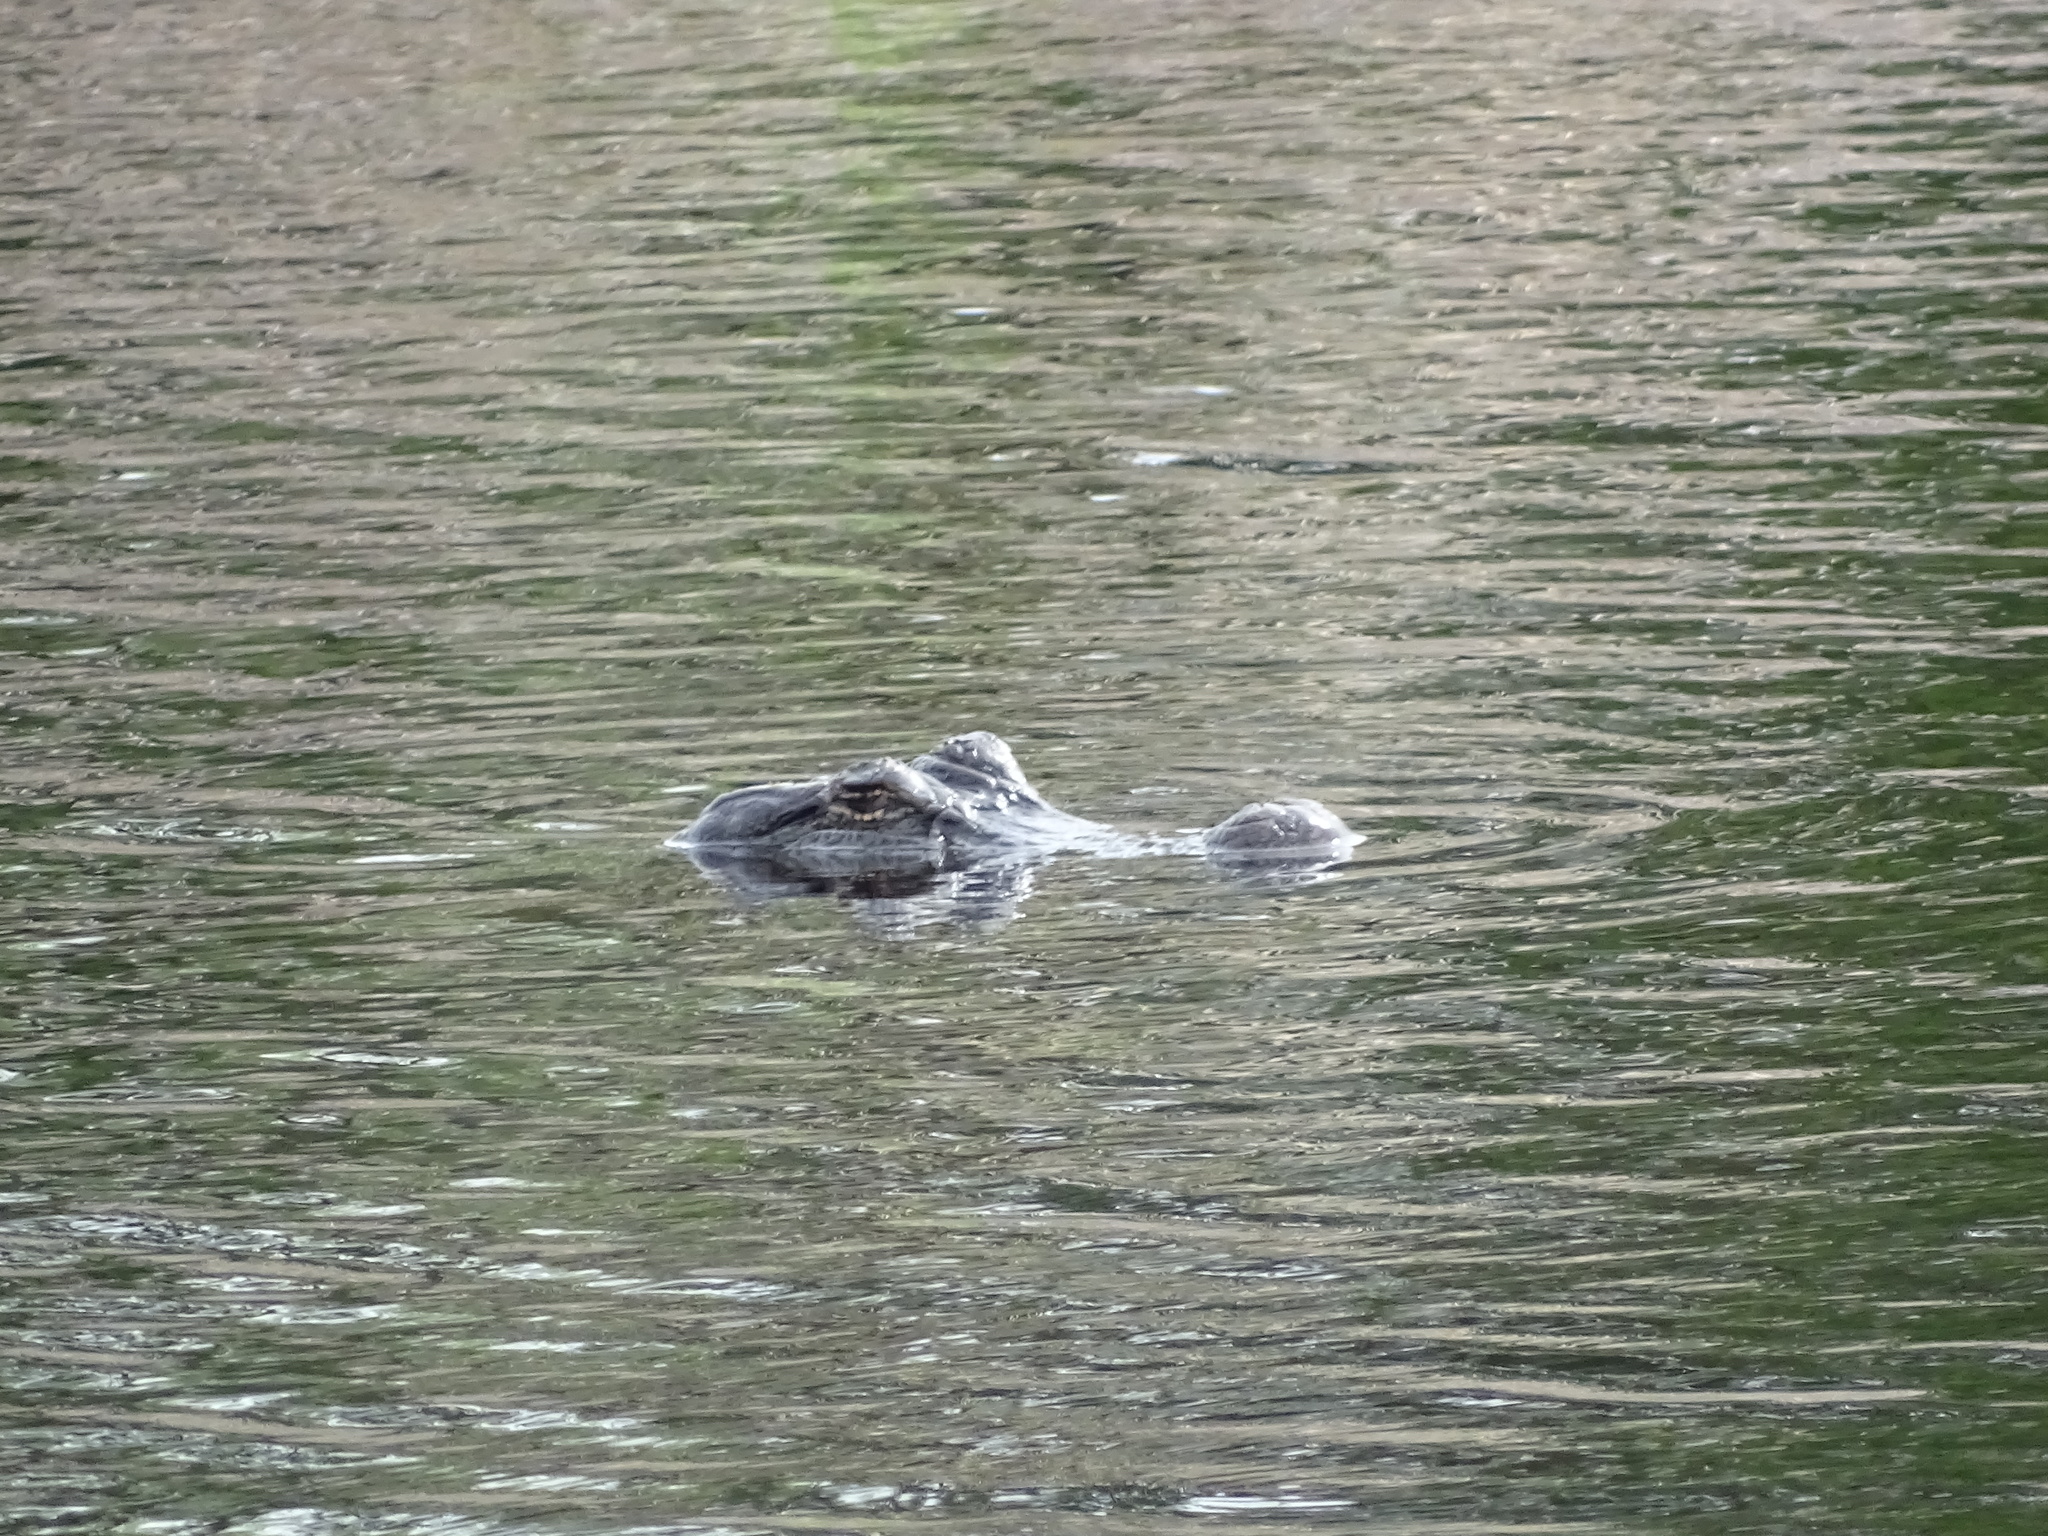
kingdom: Animalia
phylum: Chordata
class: Crocodylia
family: Alligatoridae
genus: Alligator
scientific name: Alligator mississippiensis
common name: American alligator
